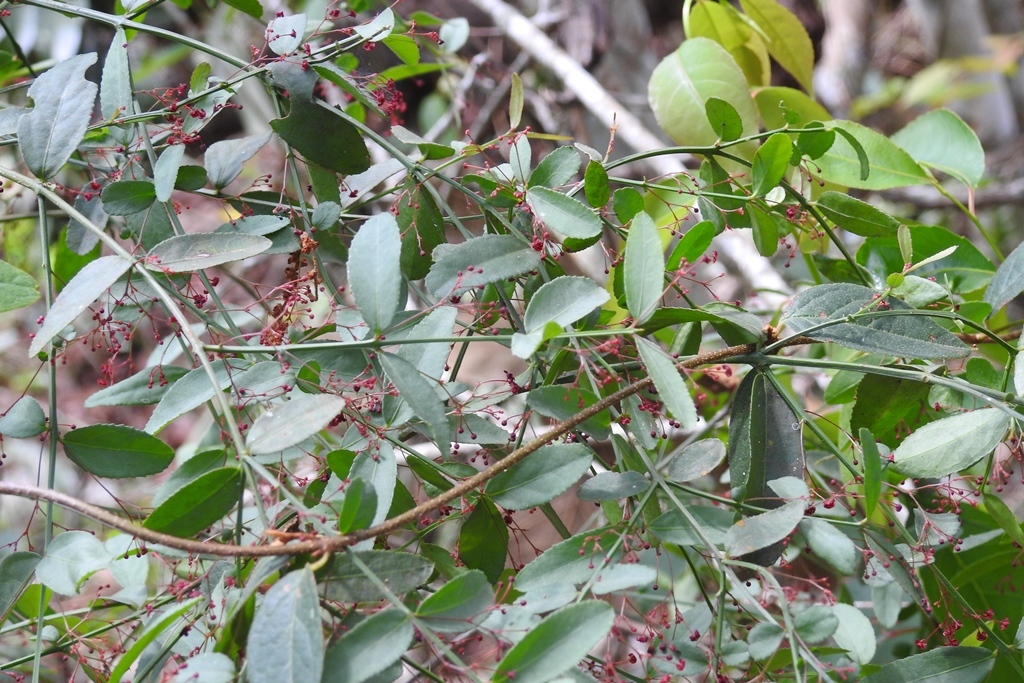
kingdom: Plantae
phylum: Tracheophyta
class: Magnoliopsida
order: Celastrales
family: Celastraceae
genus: Crossopetalum
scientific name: Crossopetalum uragoga
